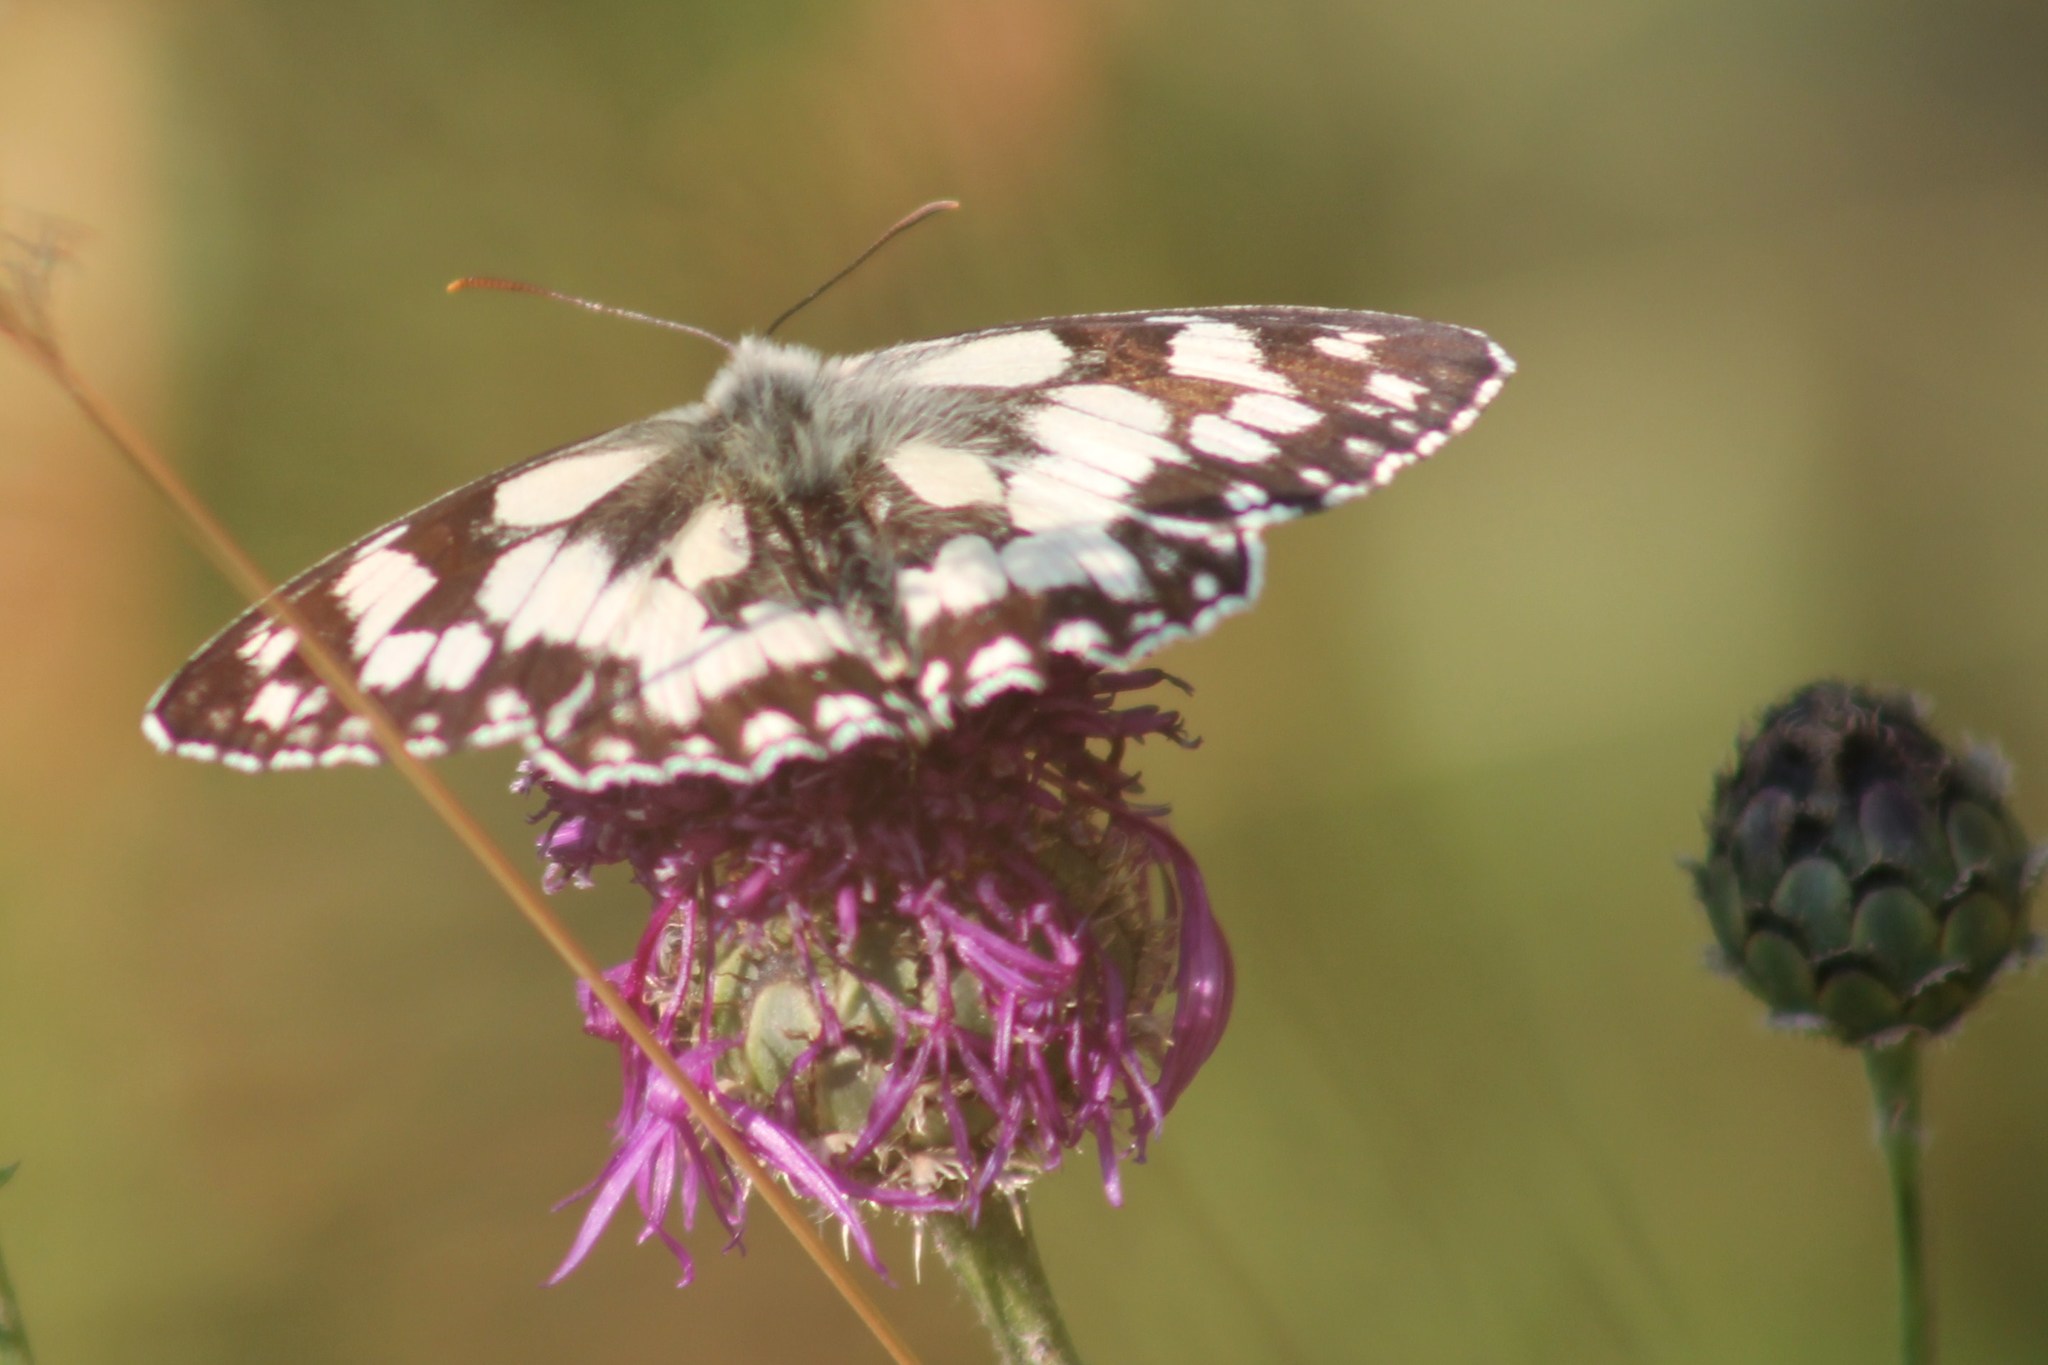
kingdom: Animalia
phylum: Arthropoda
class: Insecta
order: Lepidoptera
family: Nymphalidae
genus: Melanargia
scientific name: Melanargia galathea
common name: Marbled white
